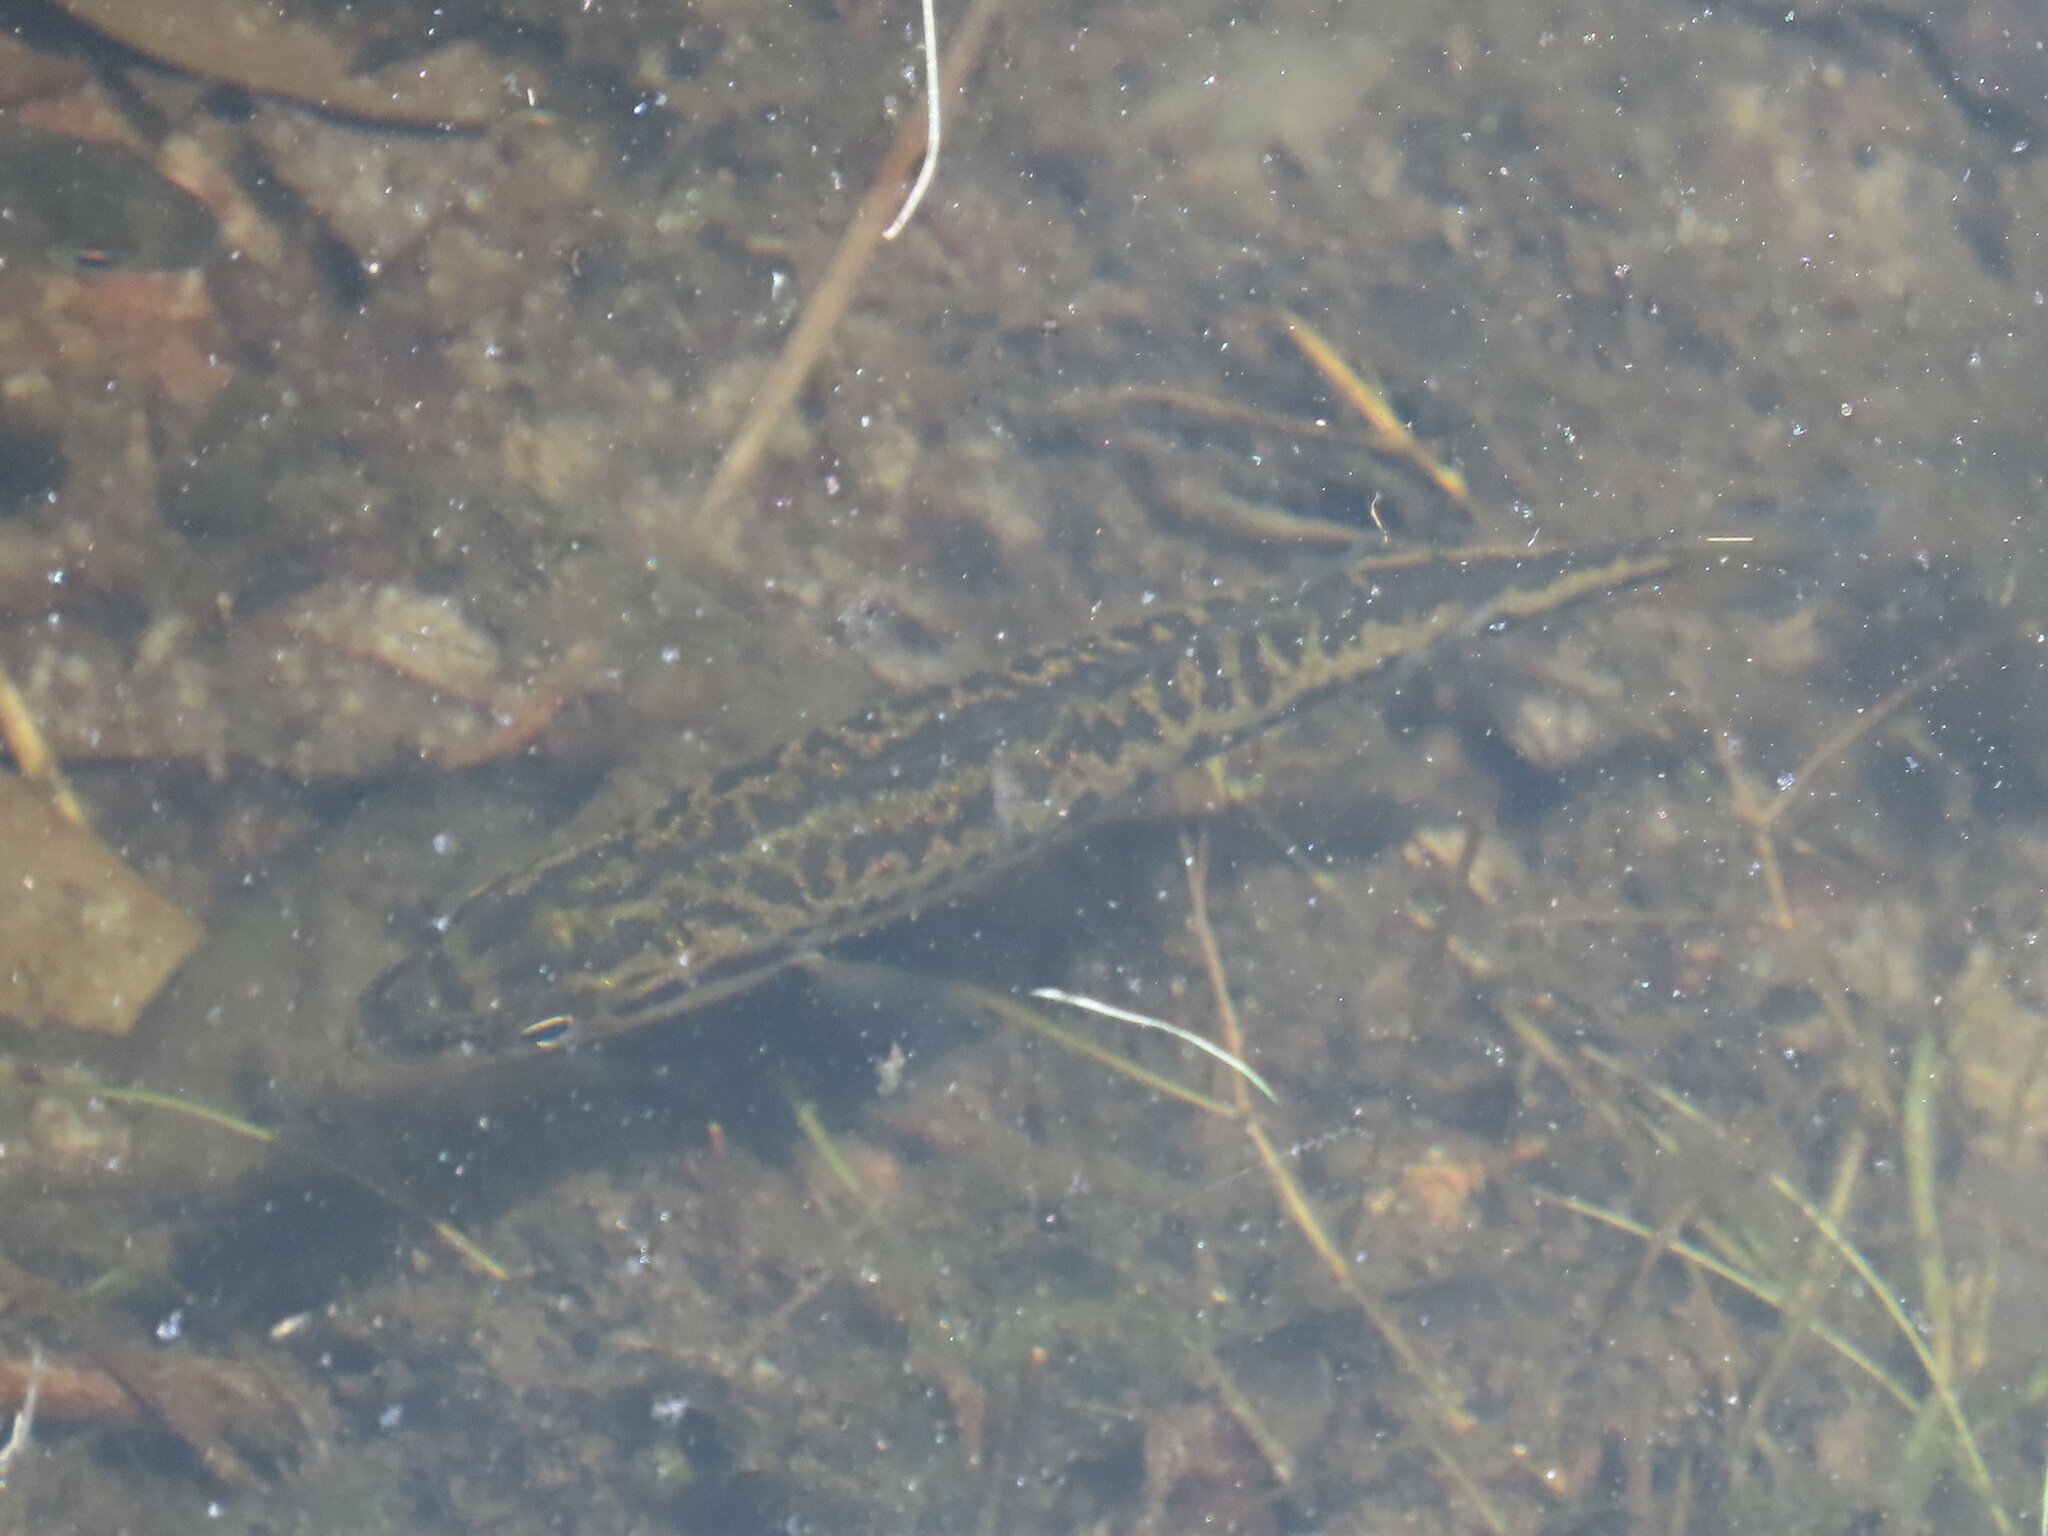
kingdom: Animalia
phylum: Chordata
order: Perciformes
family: Centrarchidae
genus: Micropterus
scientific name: Micropterus salmoides
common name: Largemouth bass
